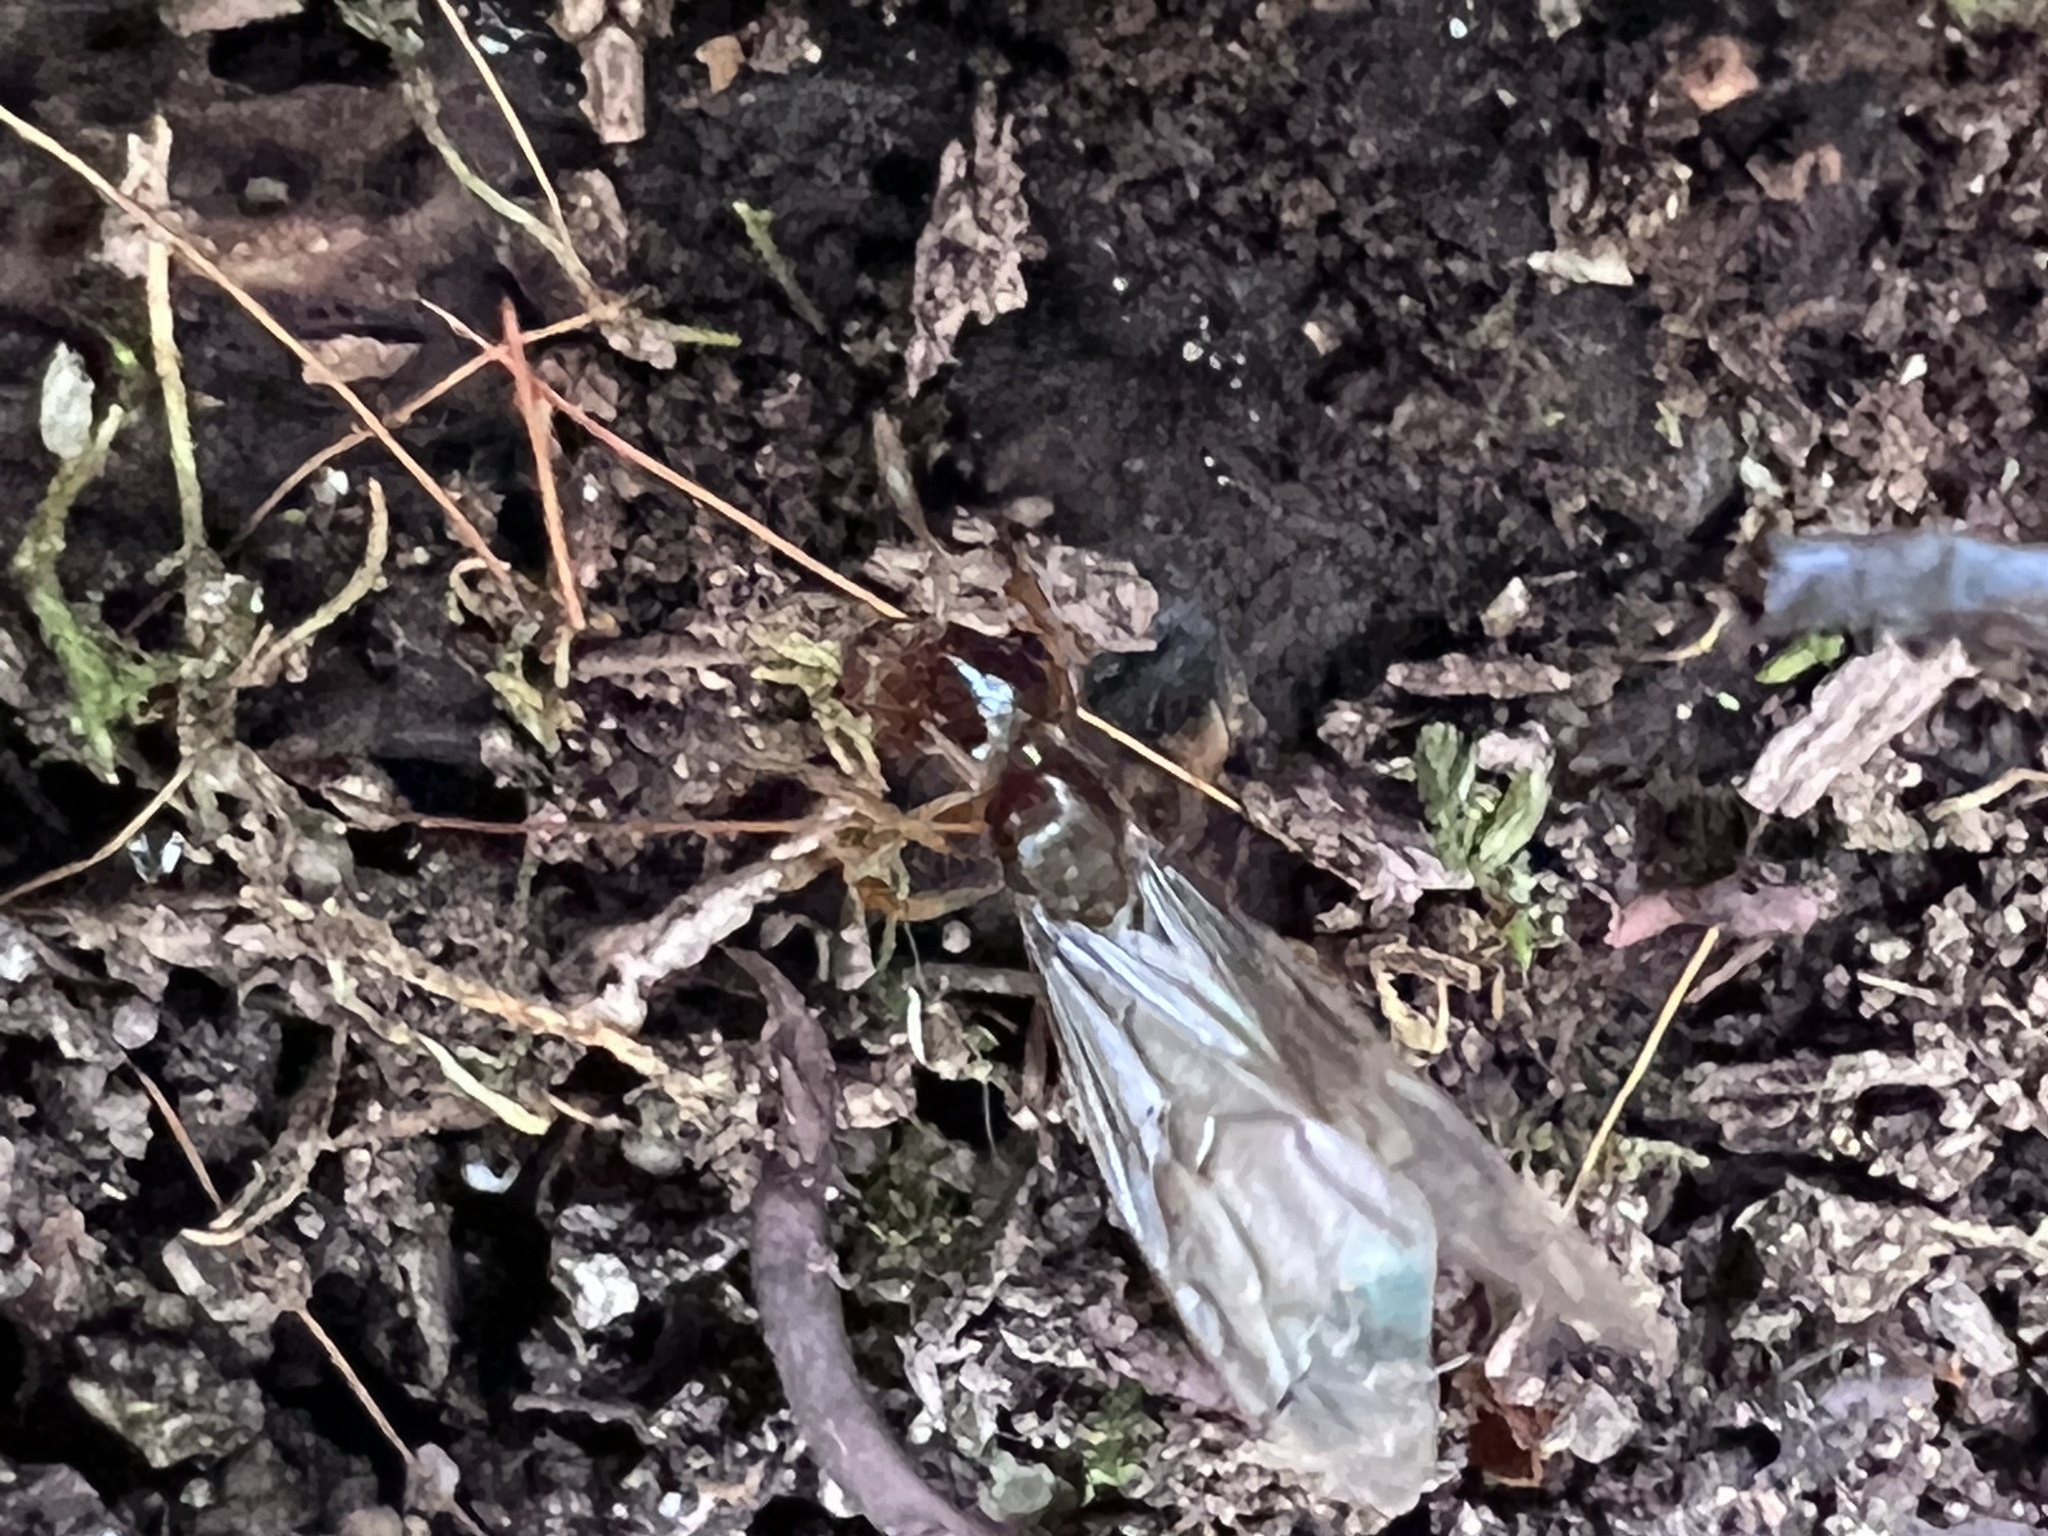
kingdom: Animalia
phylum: Arthropoda
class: Insecta
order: Hymenoptera
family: Formicidae
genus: Lasius
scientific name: Lasius claviger
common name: Common citronella ant
